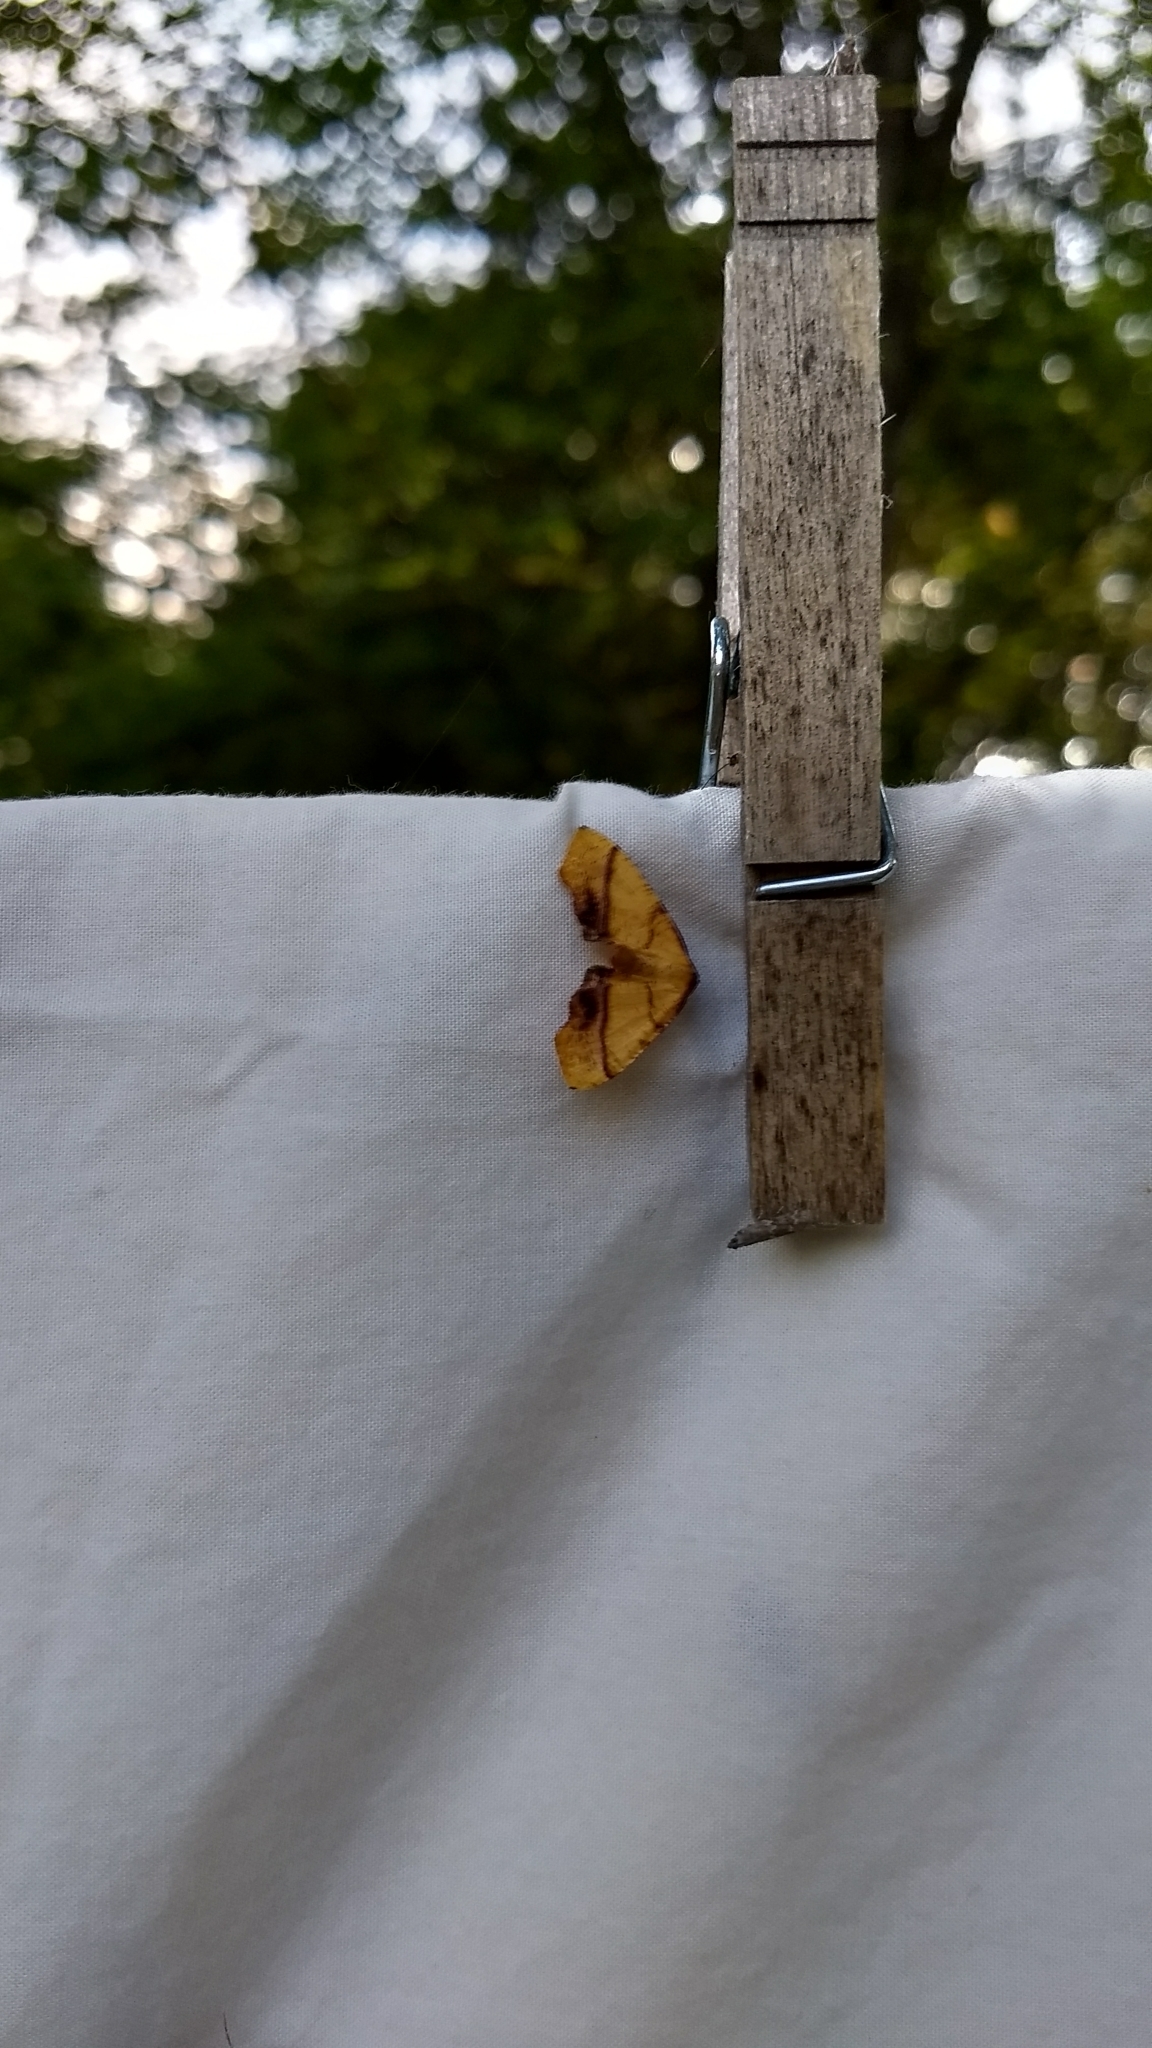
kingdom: Animalia
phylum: Arthropoda
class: Insecta
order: Lepidoptera
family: Geometridae
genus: Plagodis
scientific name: Plagodis phlogosaria
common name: Straight-lined plagodis
